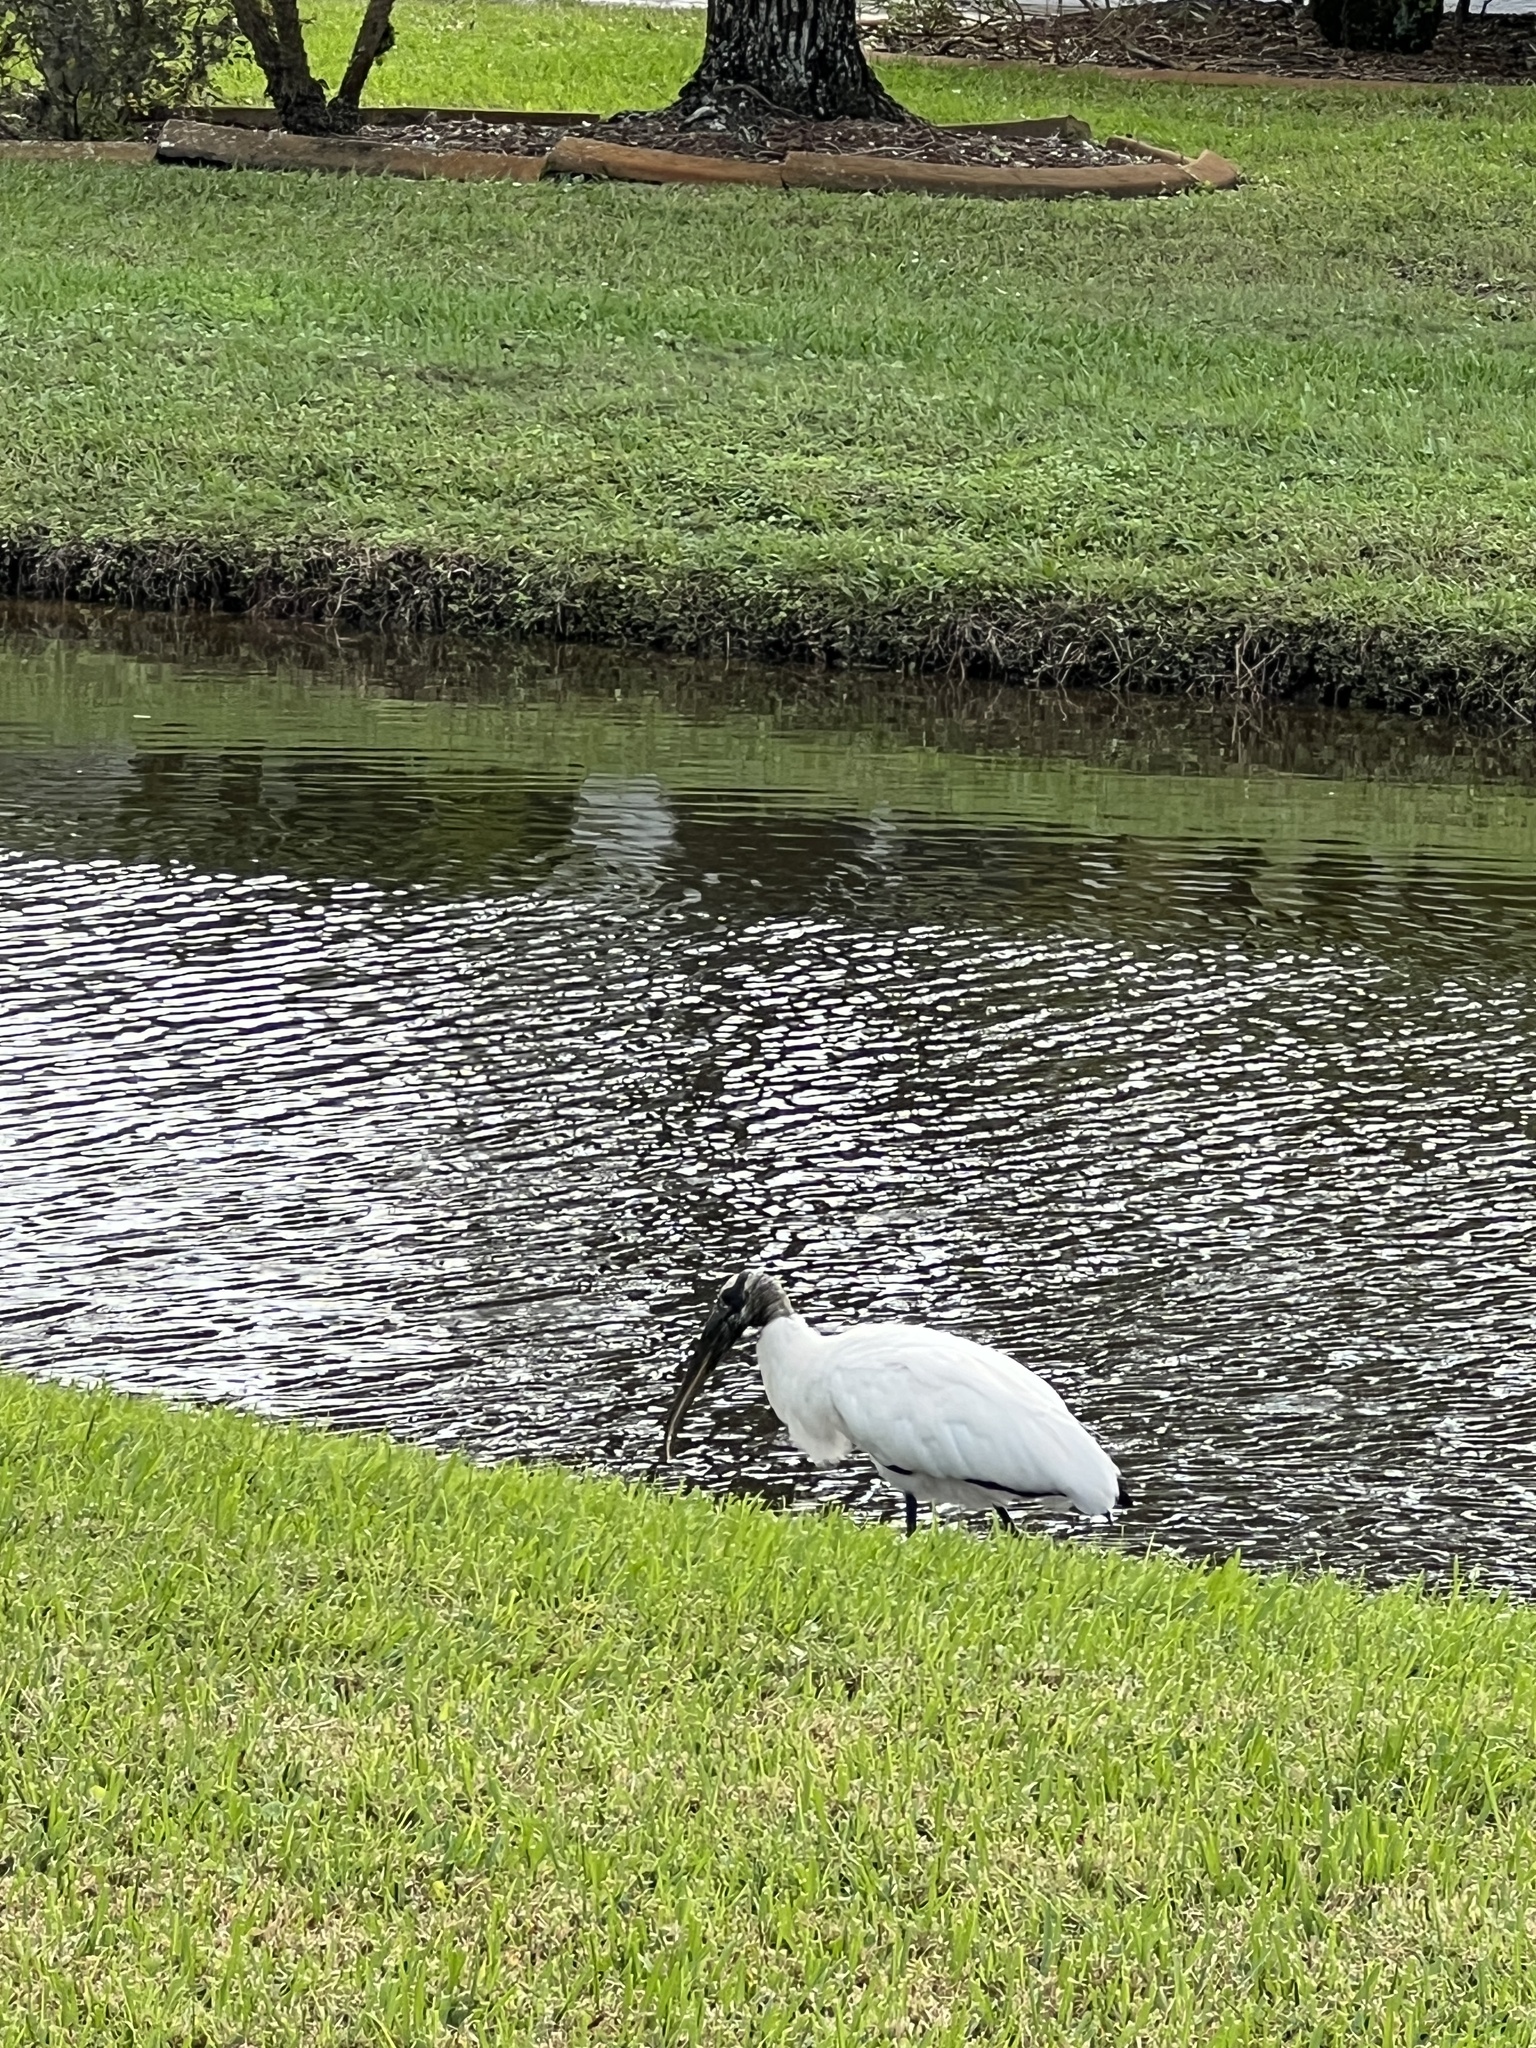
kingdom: Animalia
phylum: Chordata
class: Aves
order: Ciconiiformes
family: Ciconiidae
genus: Mycteria
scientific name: Mycteria americana
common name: Wood stork
